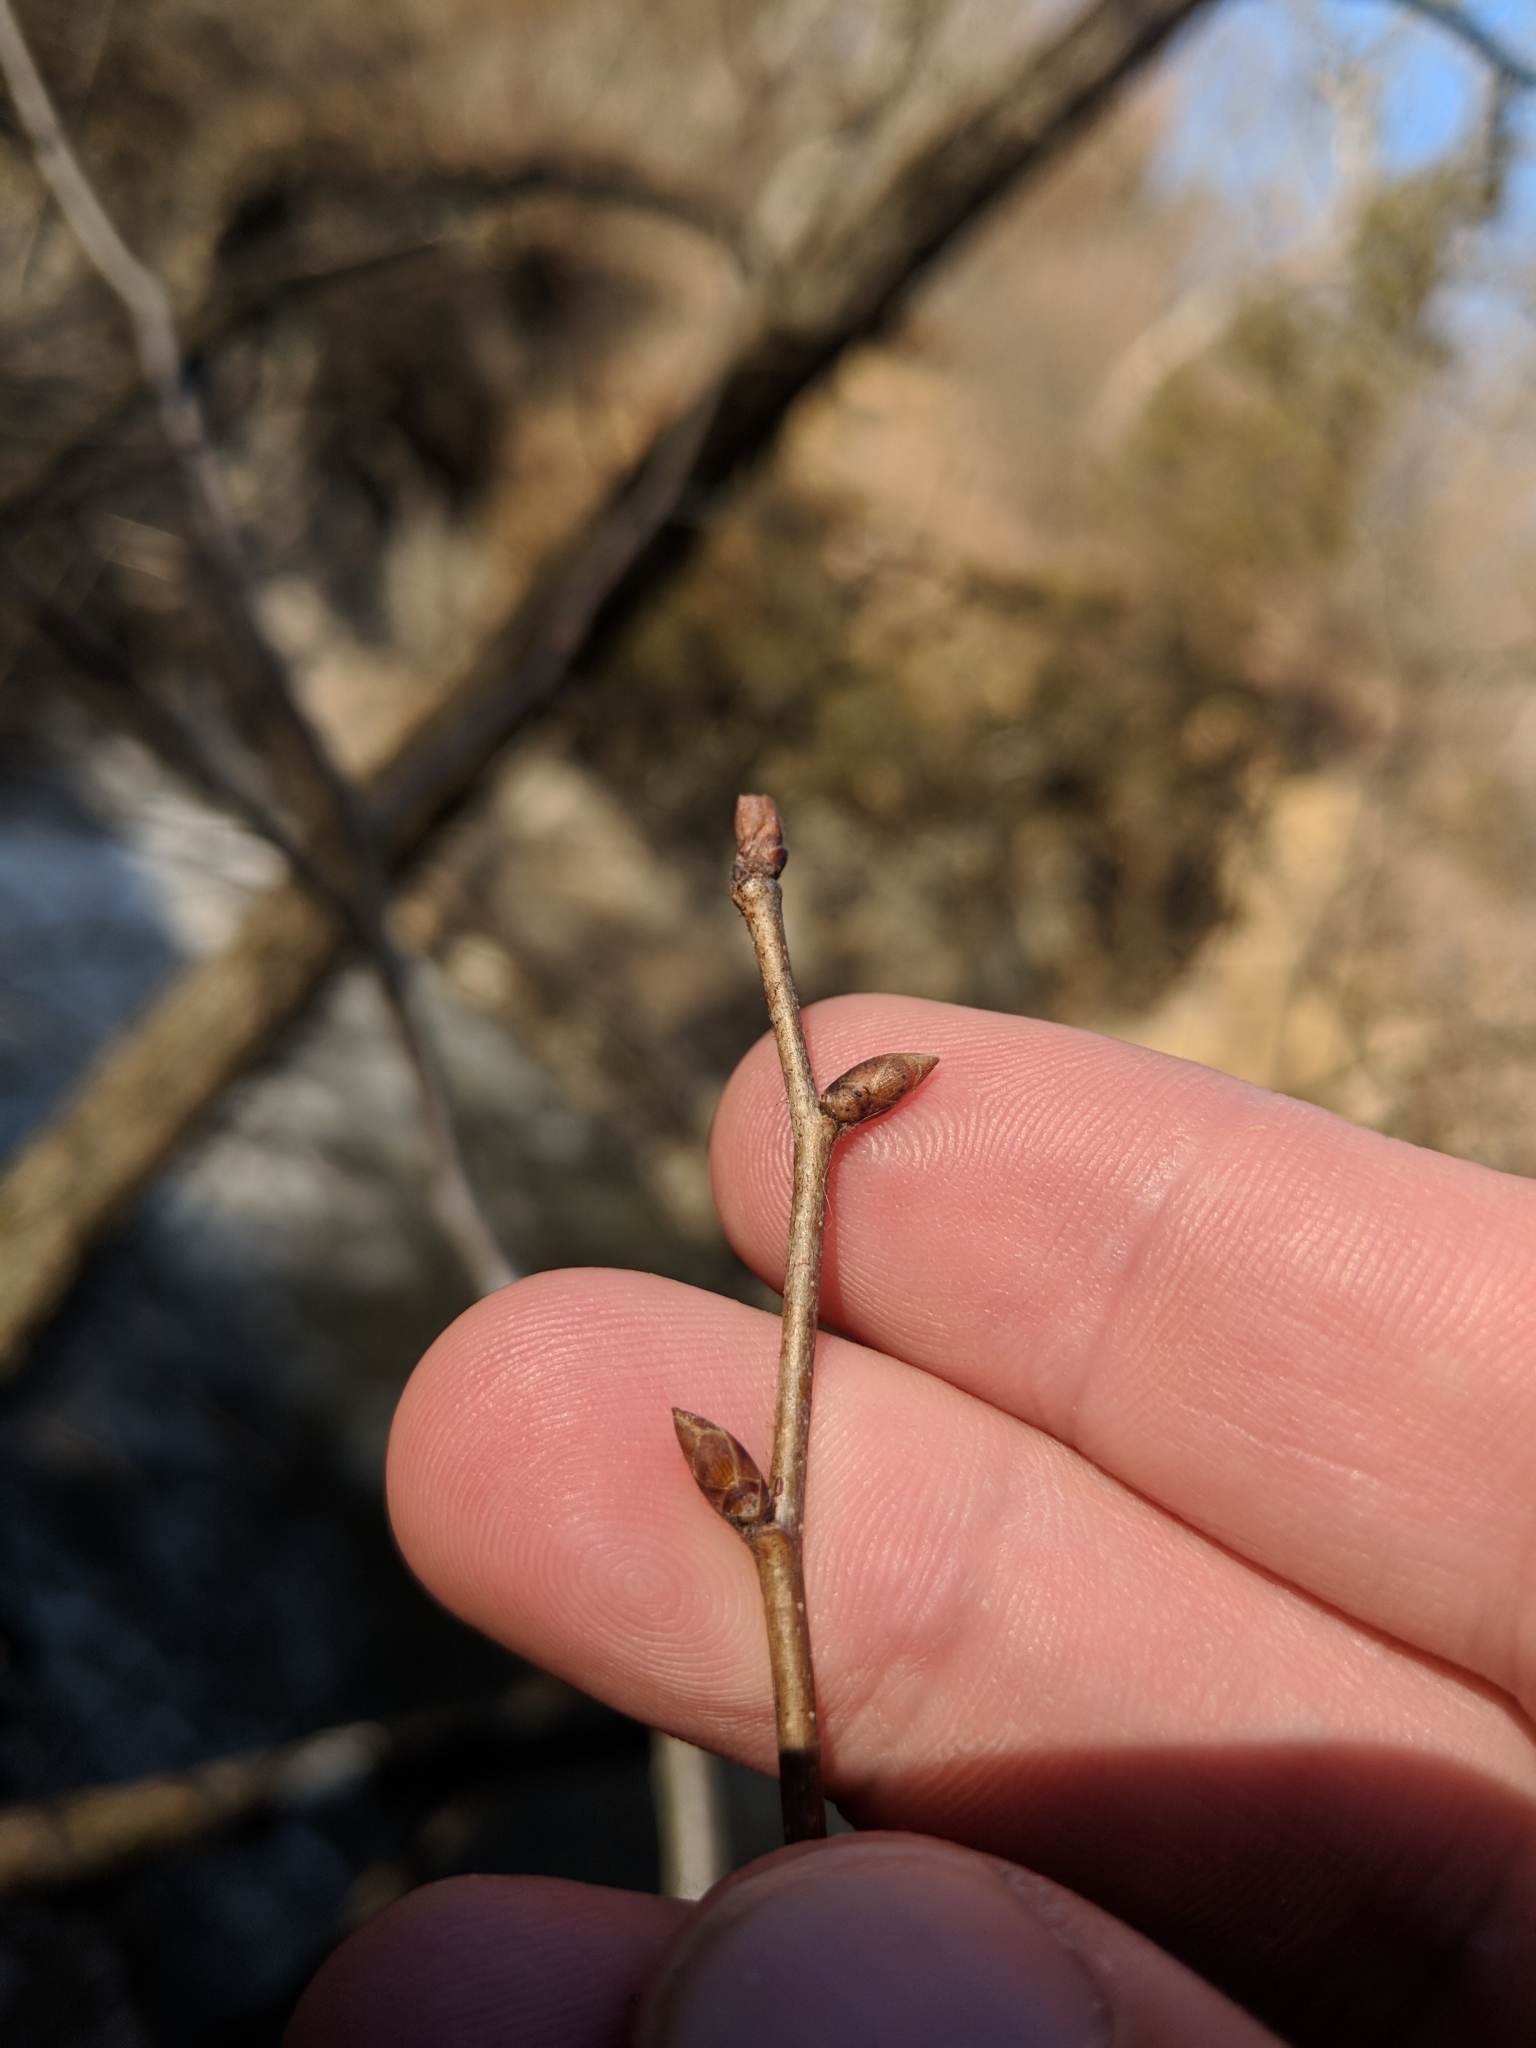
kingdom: Plantae
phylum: Tracheophyta
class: Magnoliopsida
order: Fagales
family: Betulaceae
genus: Ostrya
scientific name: Ostrya virginiana
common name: Ironwood
